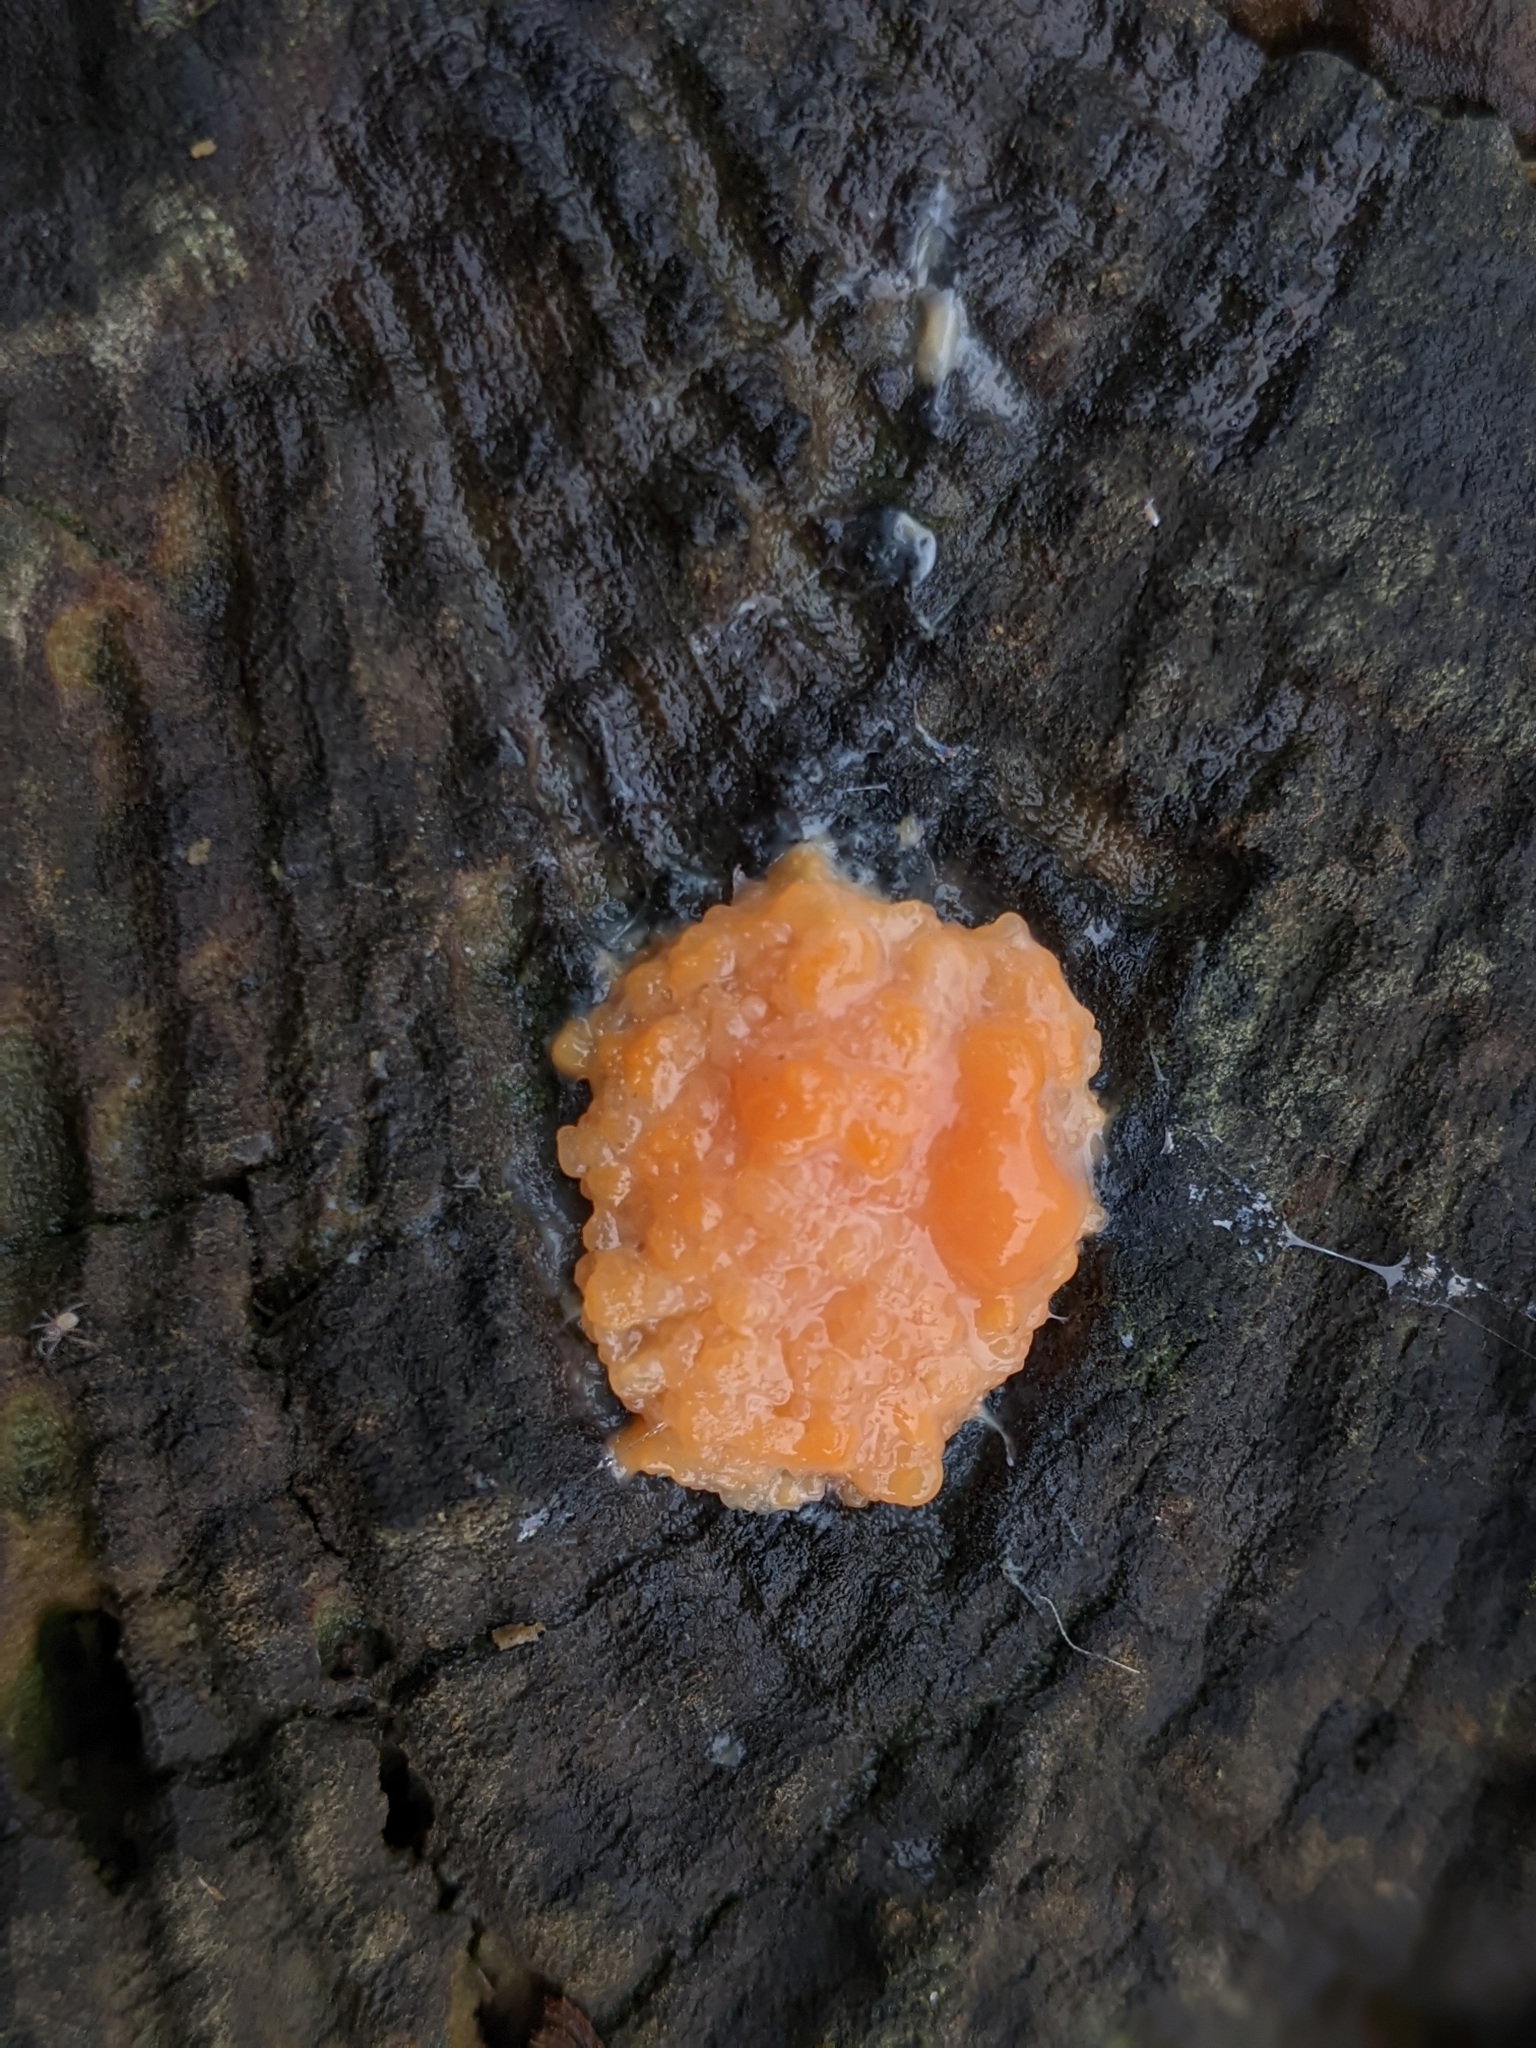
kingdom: Protozoa
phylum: Mycetozoa
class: Myxomycetes
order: Cribrariales
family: Tubiferaceae
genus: Tubifera
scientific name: Tubifera ferruginosa
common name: Red raspberry slime mold
